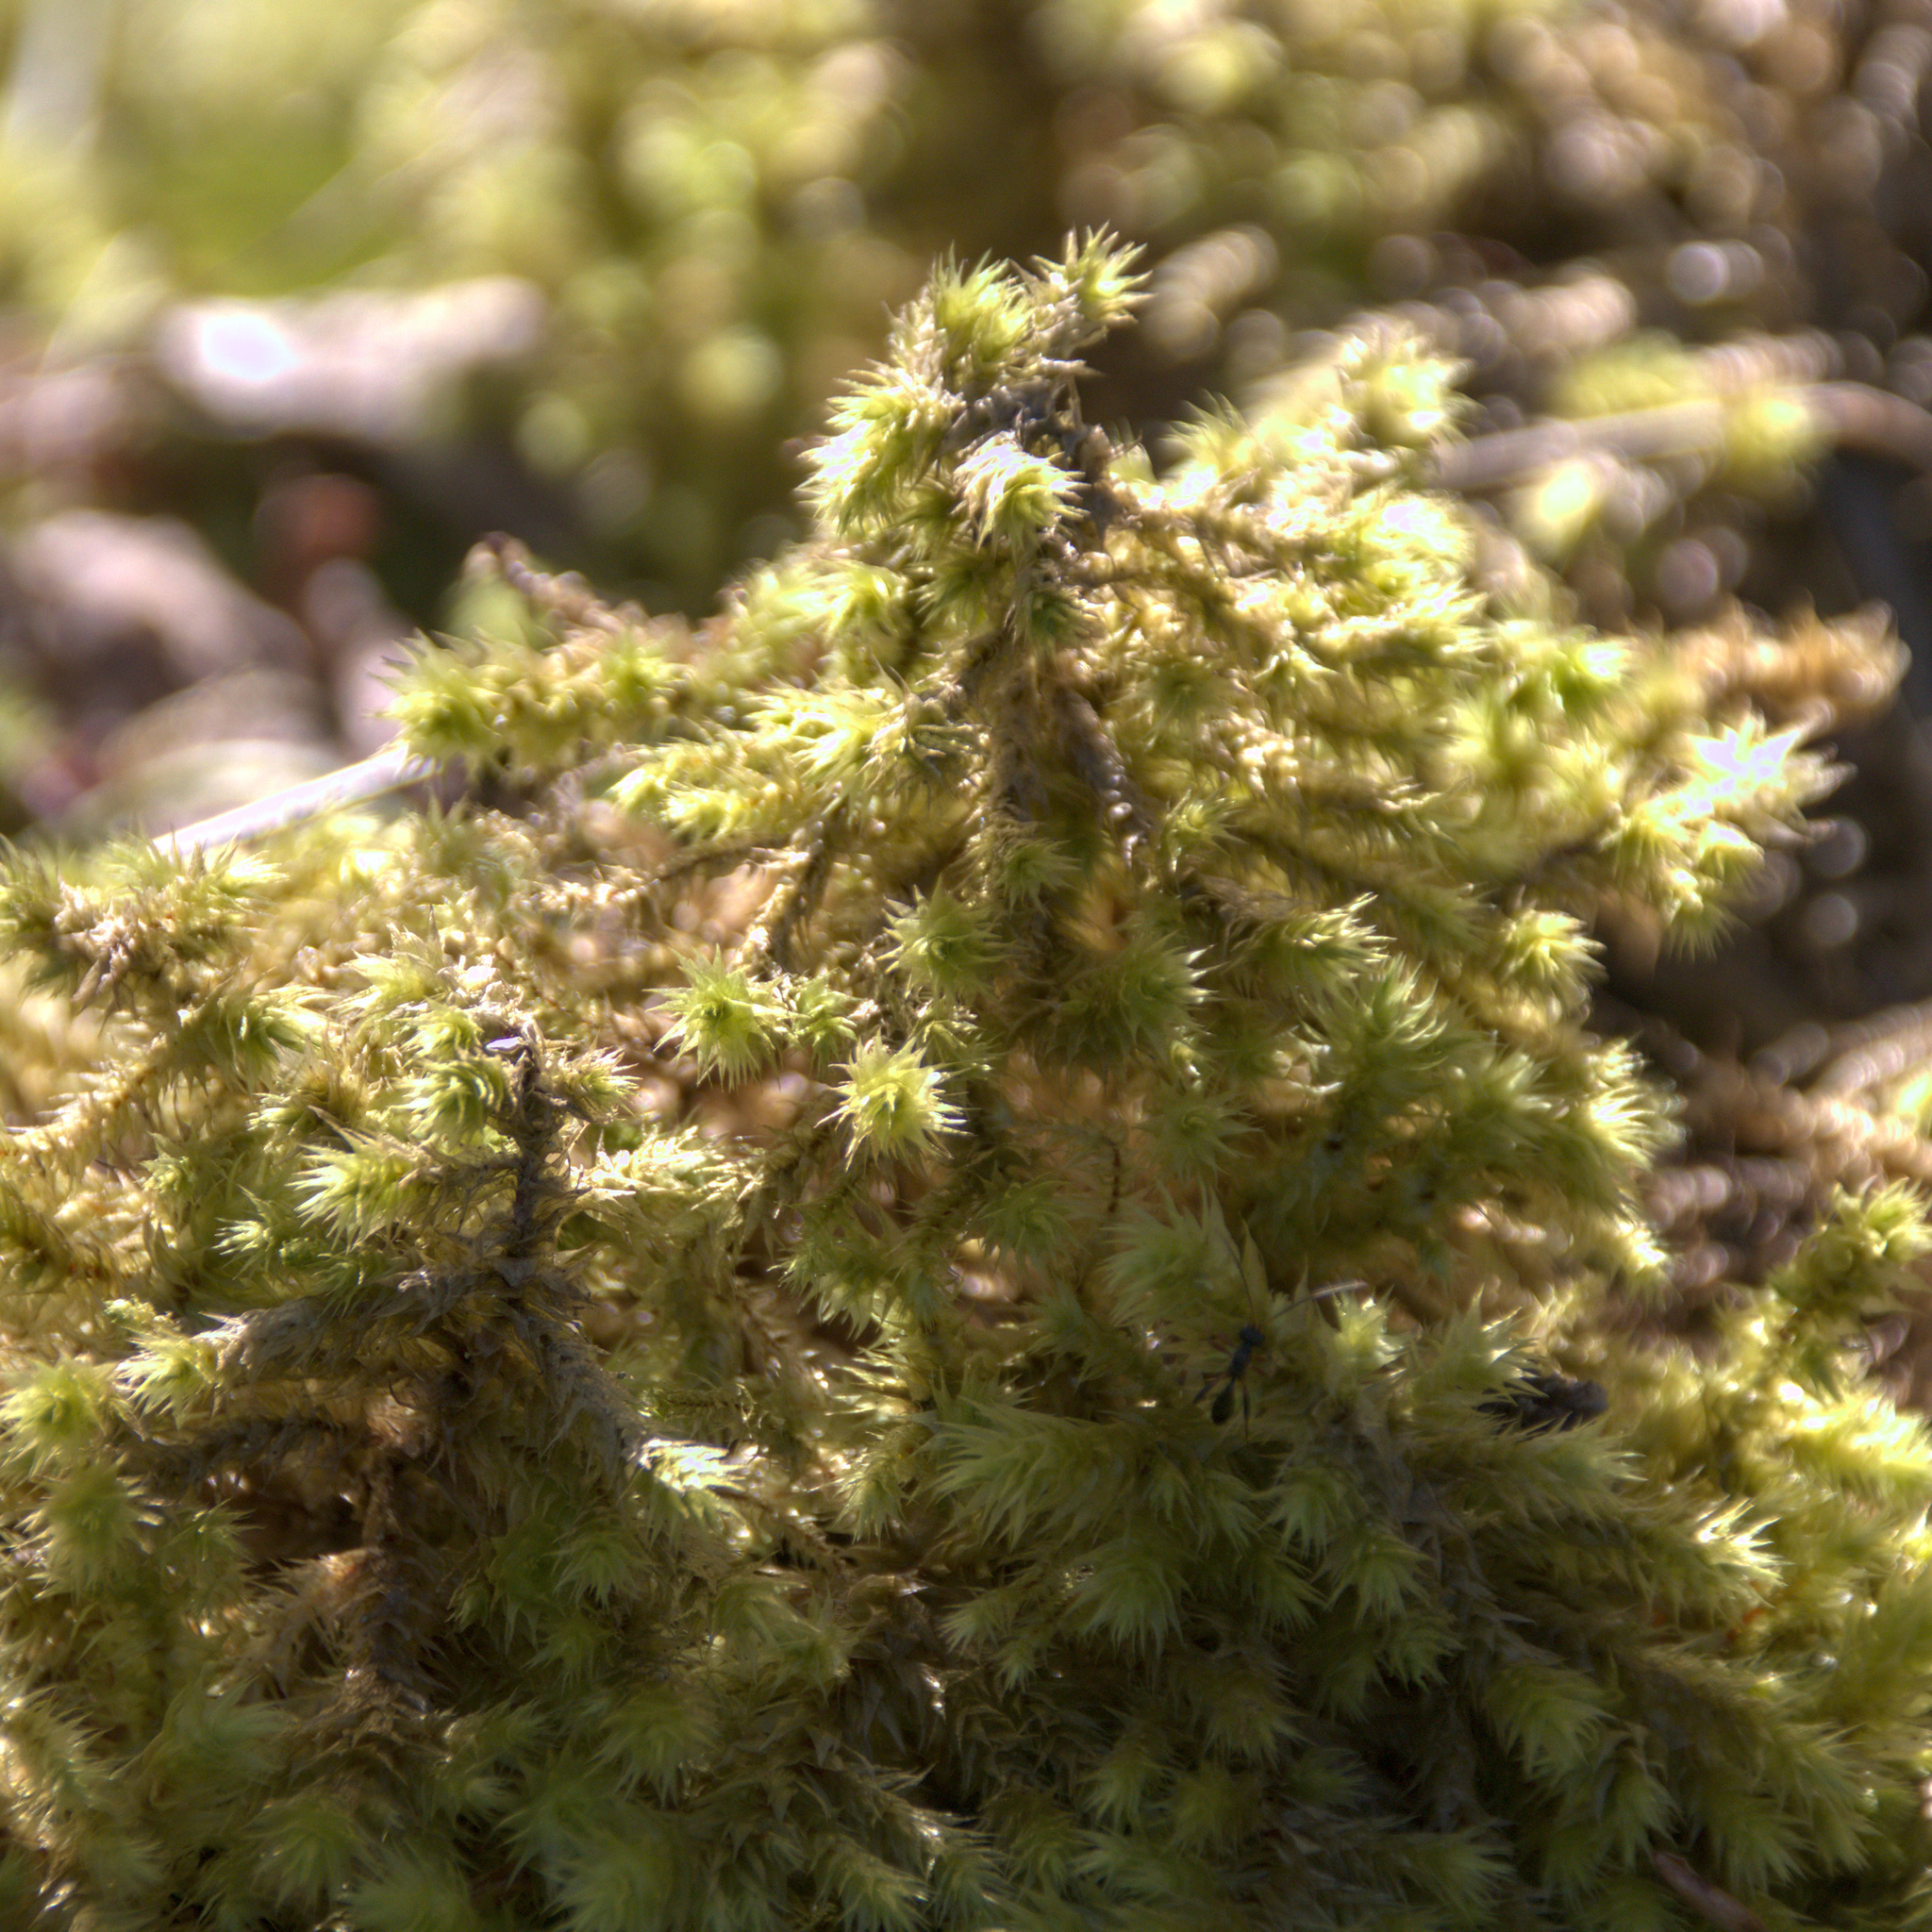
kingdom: Plantae
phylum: Bryophyta
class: Bryopsida
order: Hypnales
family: Hylocomiaceae
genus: Hylocomiadelphus
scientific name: Hylocomiadelphus triquetrus
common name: Rough goose neck moss
